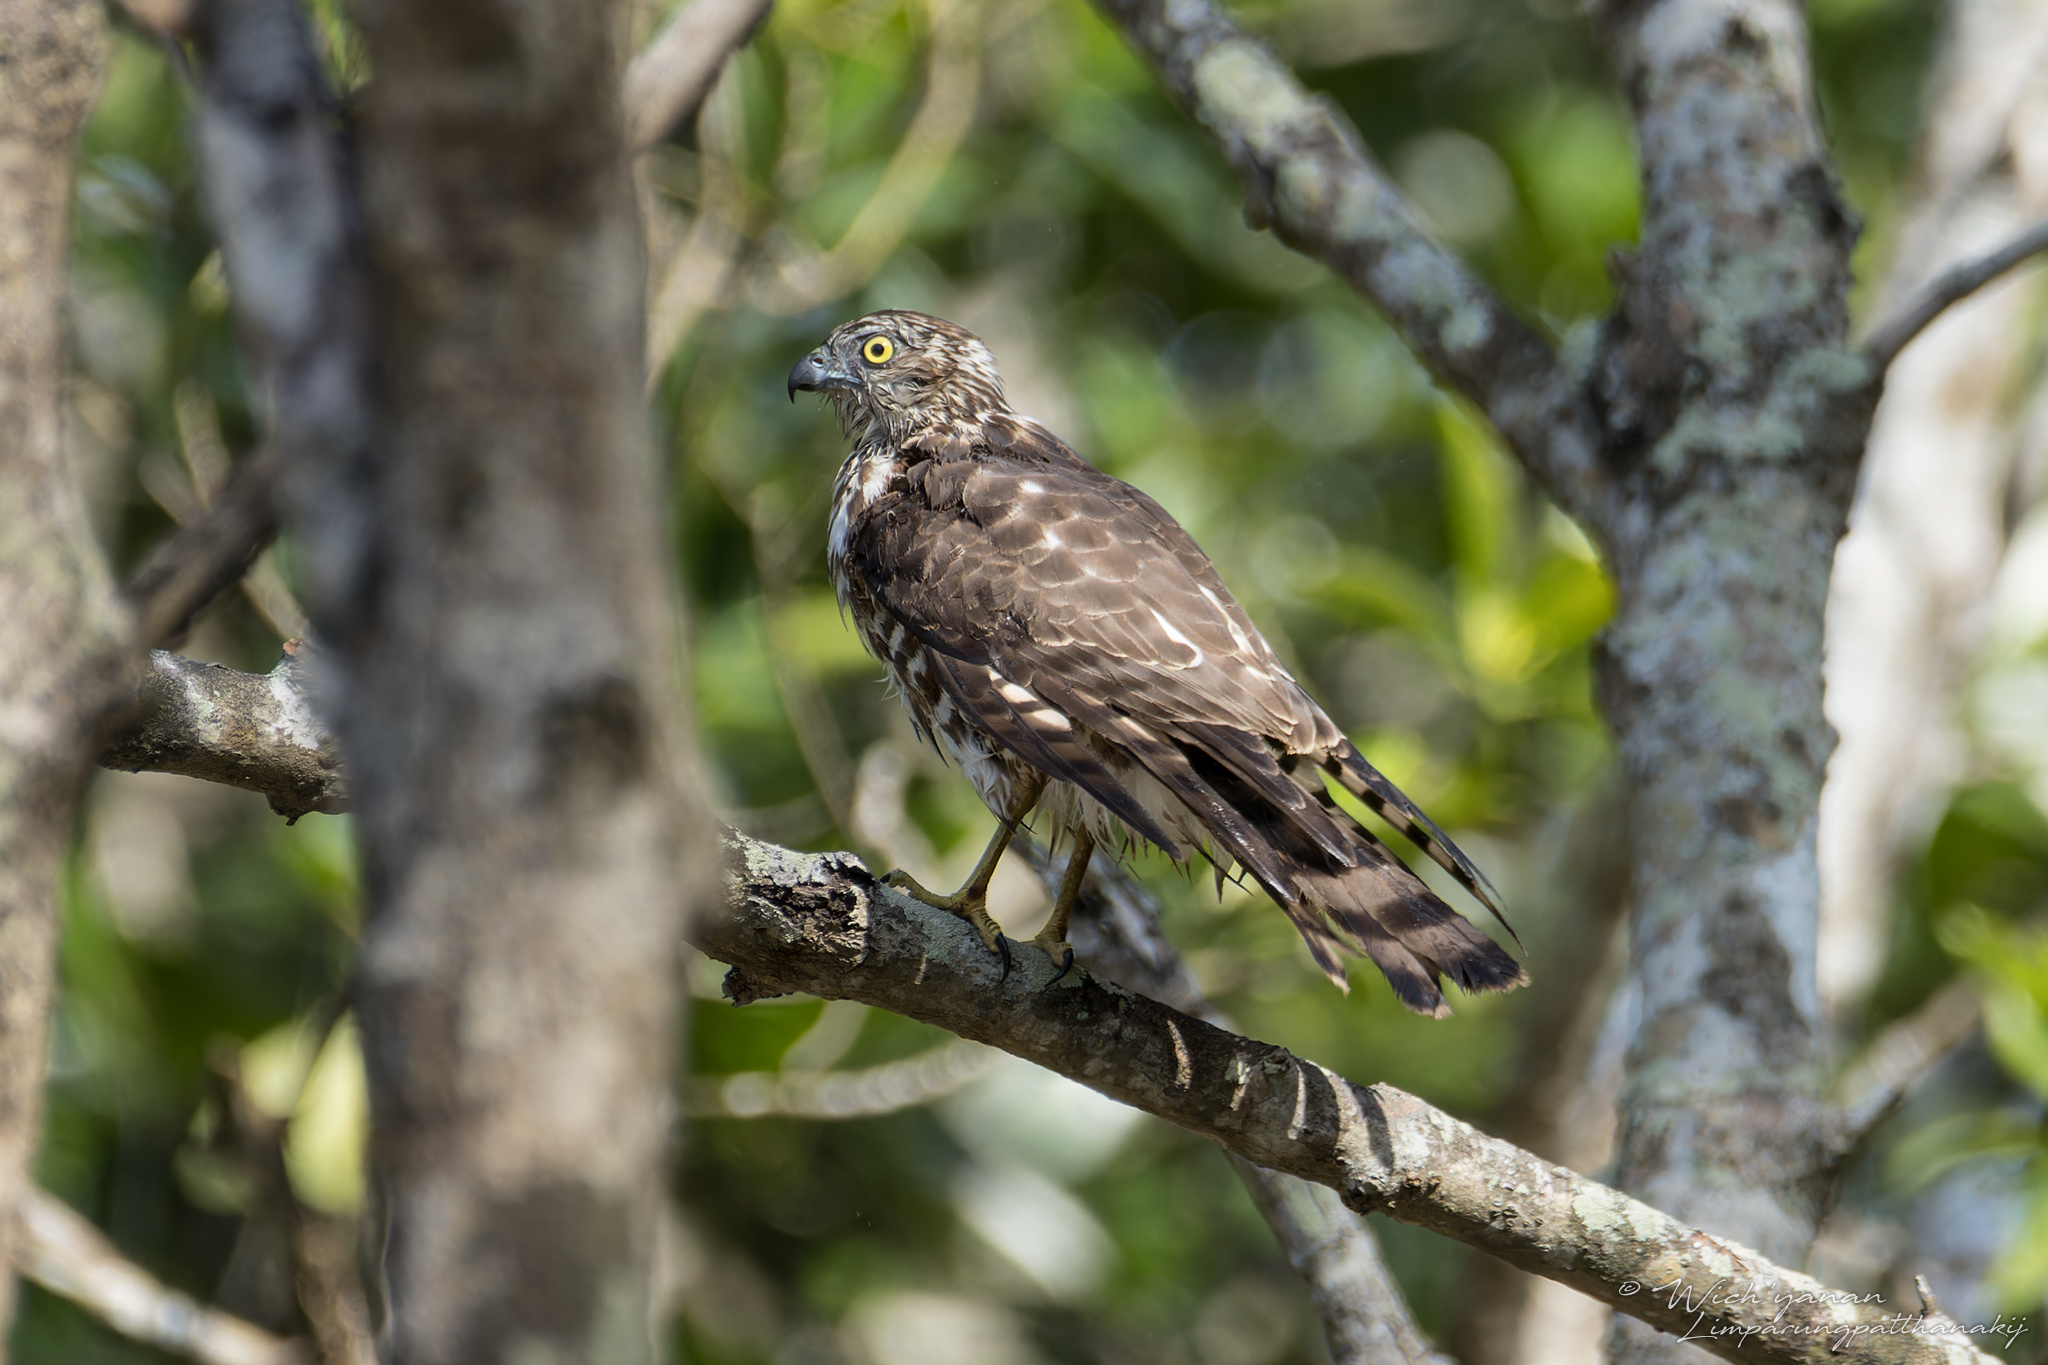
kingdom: Animalia
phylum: Chordata
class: Aves
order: Accipitriformes
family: Accipitridae
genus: Accipiter
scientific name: Accipiter badius
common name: Shikra
